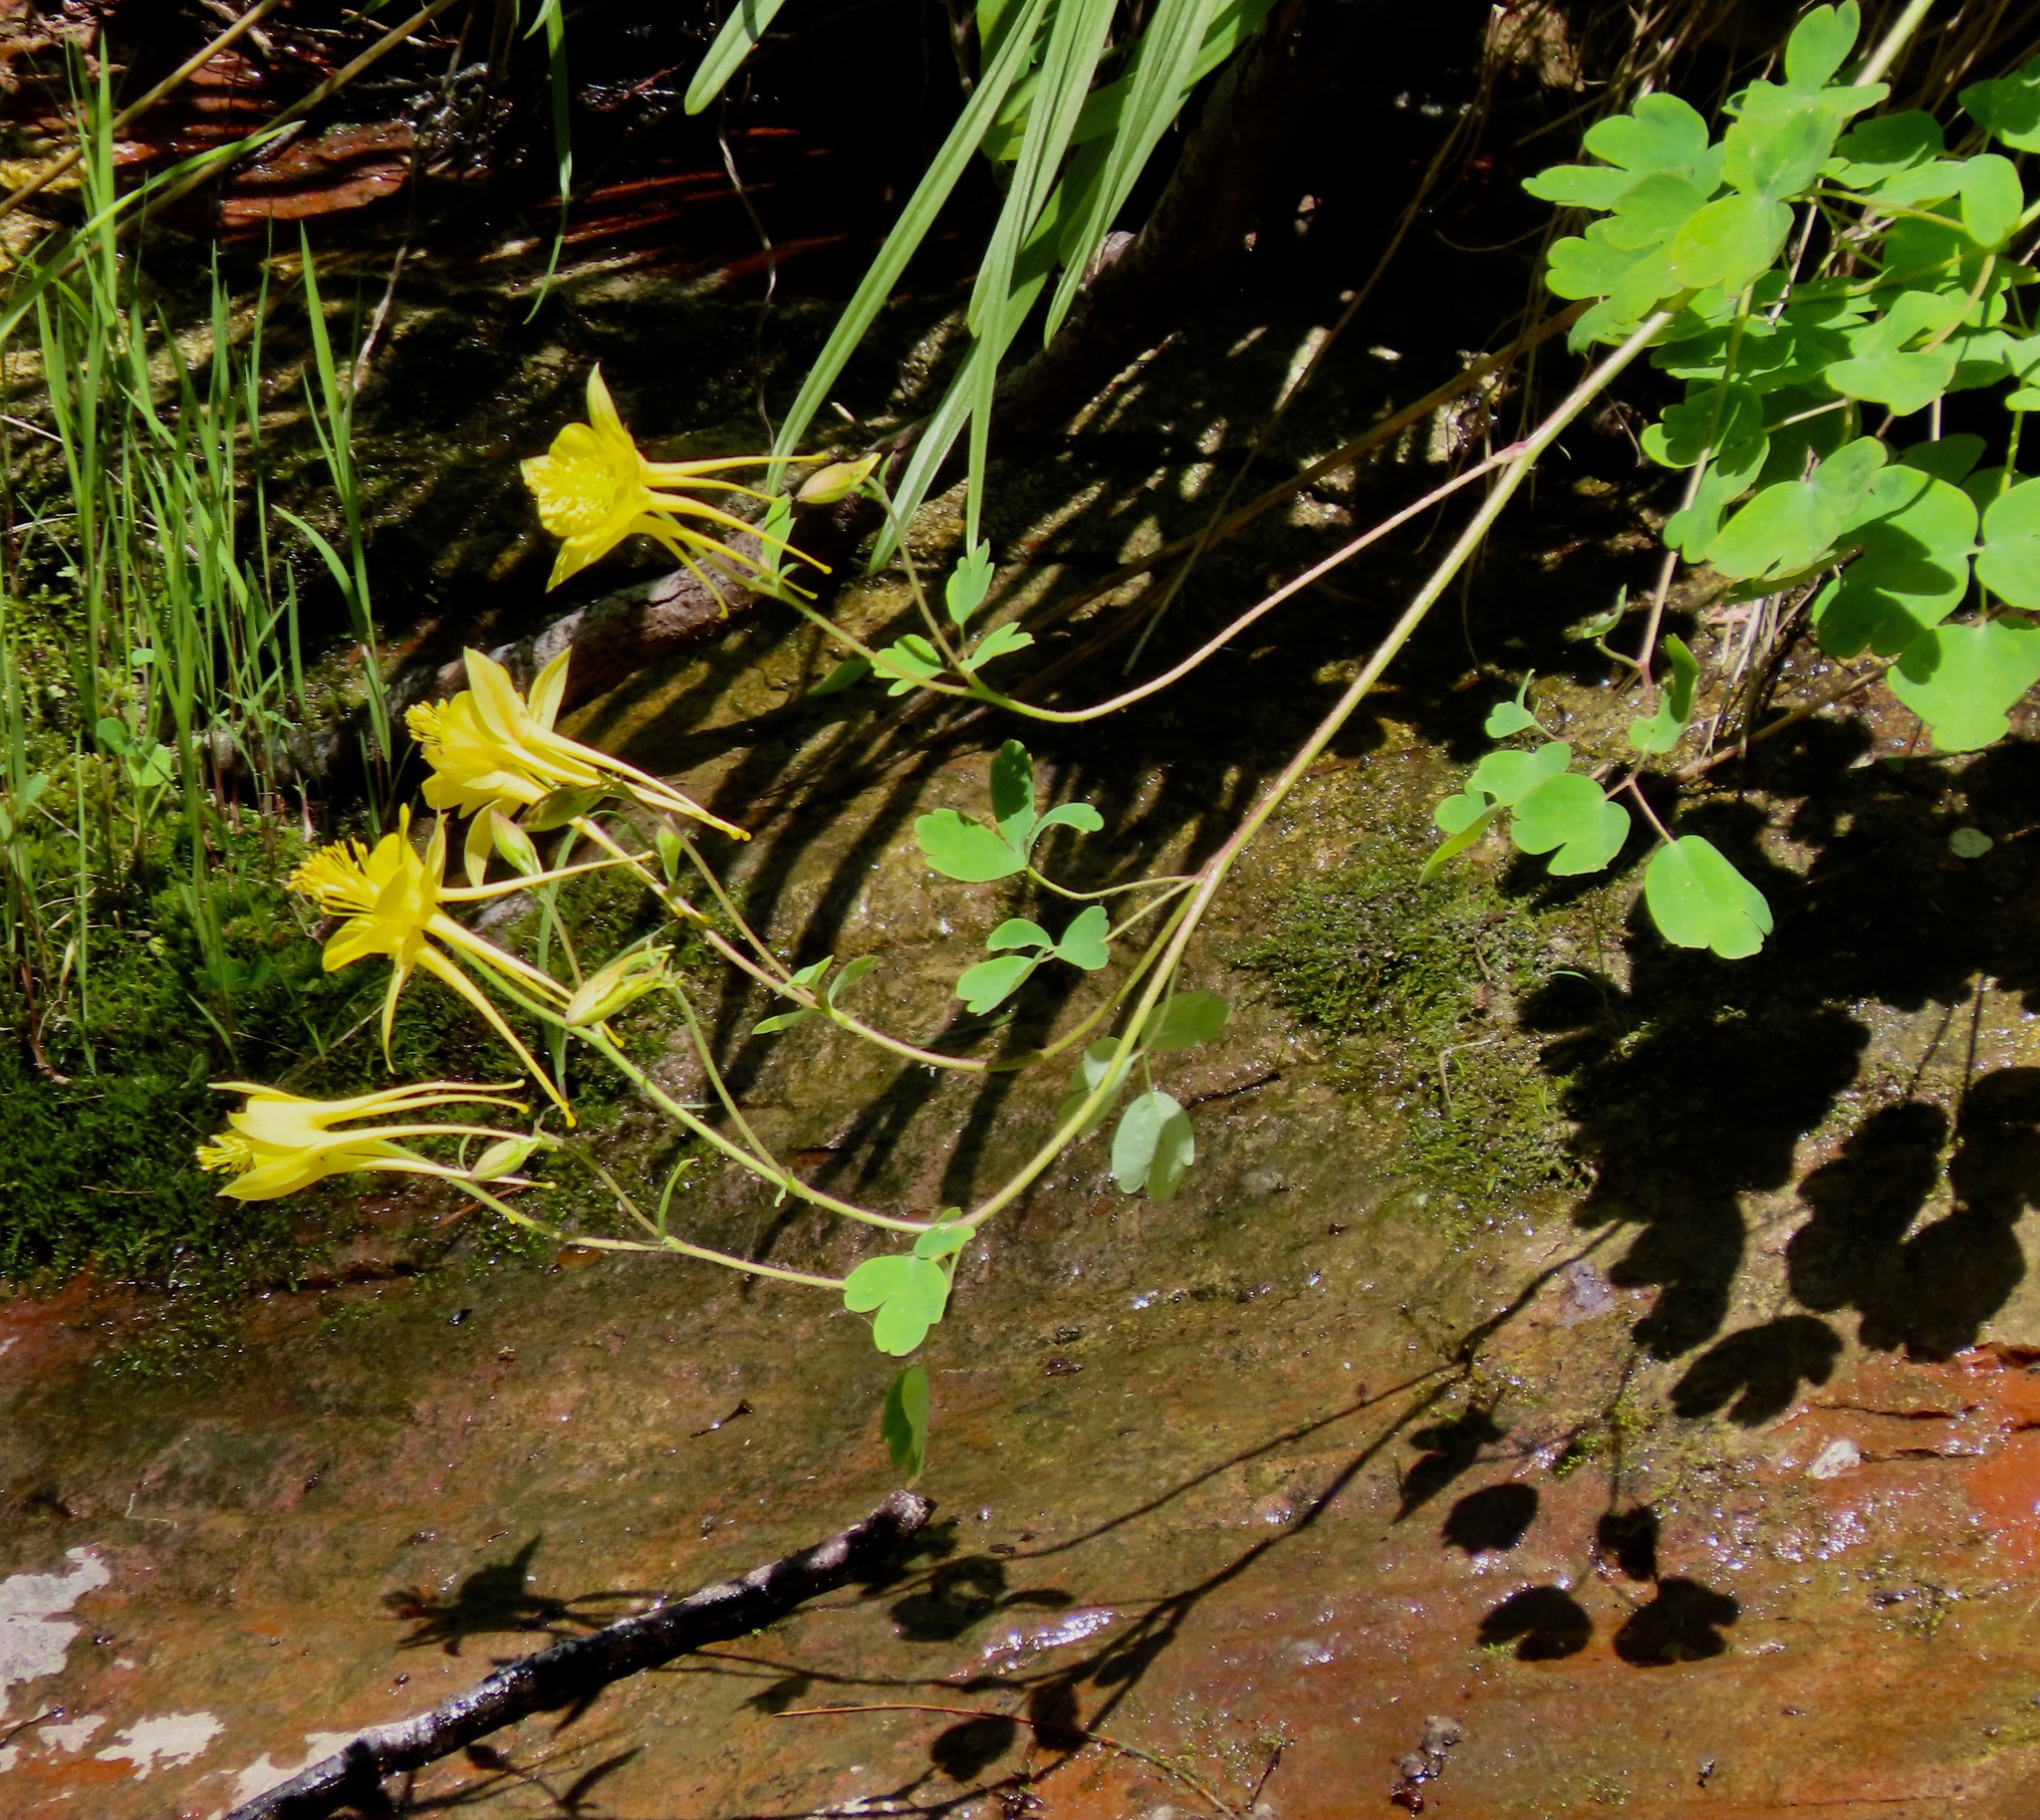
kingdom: Plantae
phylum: Tracheophyta
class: Magnoliopsida
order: Ranunculales
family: Ranunculaceae
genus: Aquilegia
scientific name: Aquilegia chrysantha
